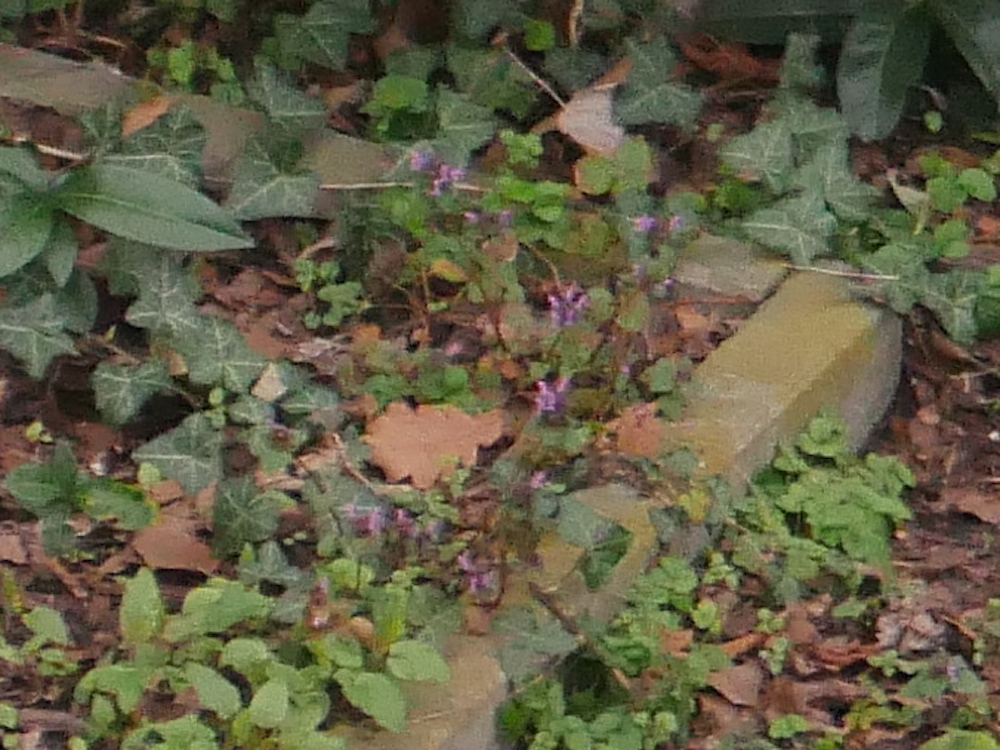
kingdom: Plantae
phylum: Tracheophyta
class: Magnoliopsida
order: Lamiales
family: Lamiaceae
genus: Lamium
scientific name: Lamium purpureum
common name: Red dead-nettle
